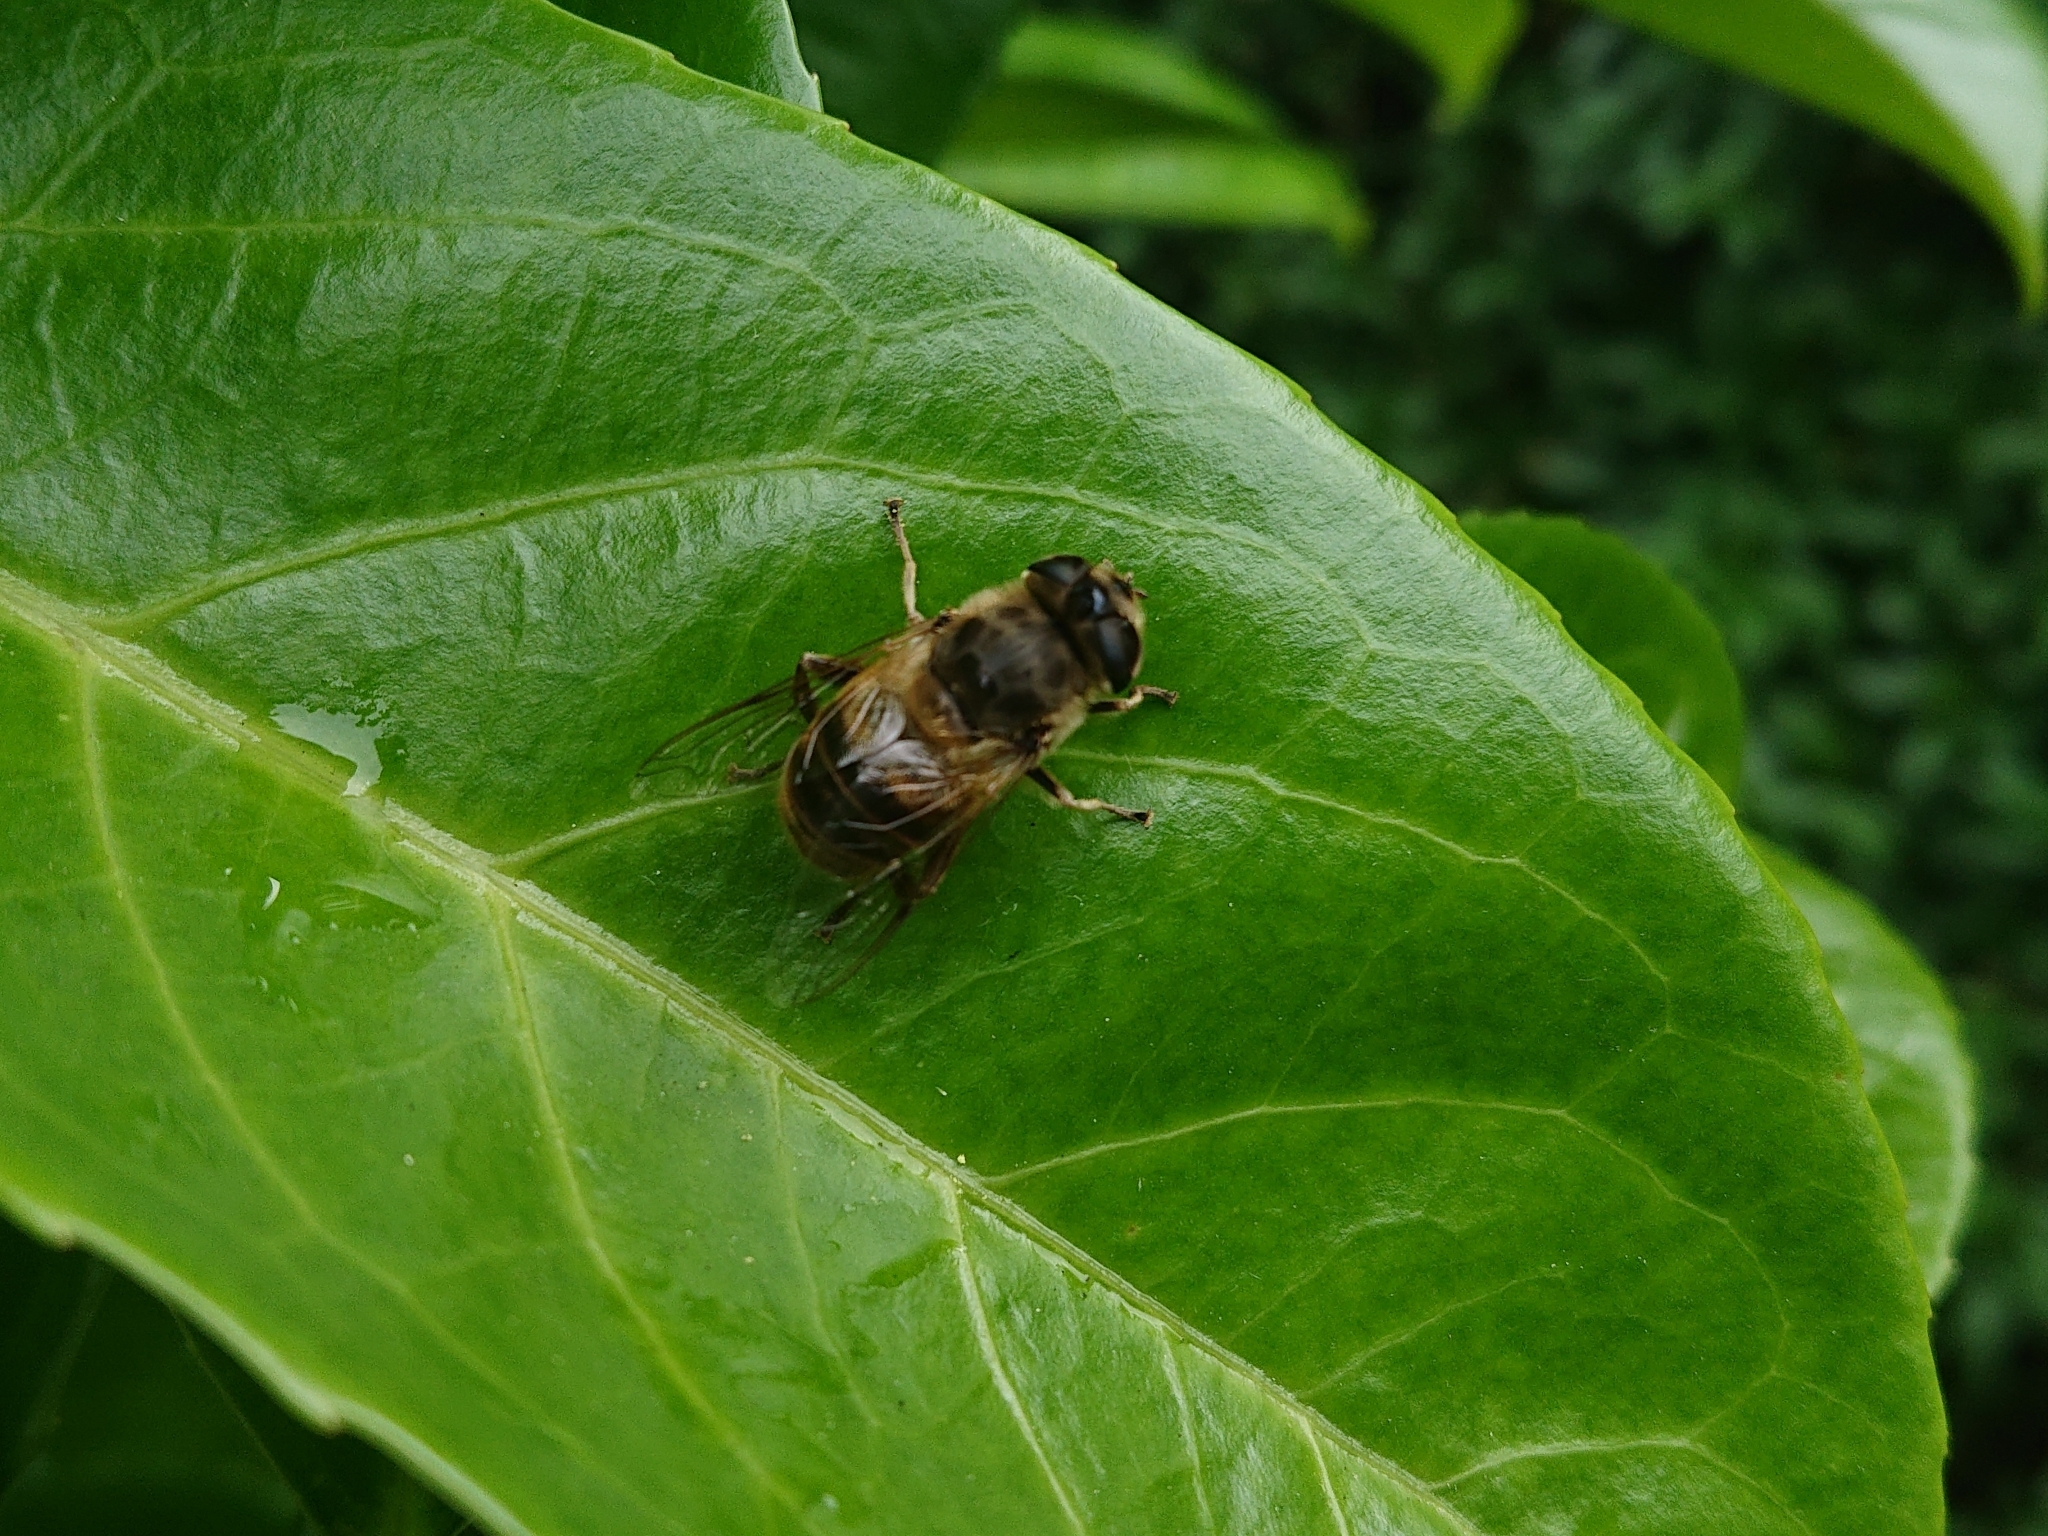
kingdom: Animalia
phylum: Arthropoda
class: Insecta
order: Diptera
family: Syrphidae
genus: Eristalis
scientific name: Eristalis tenax
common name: Drone fly
